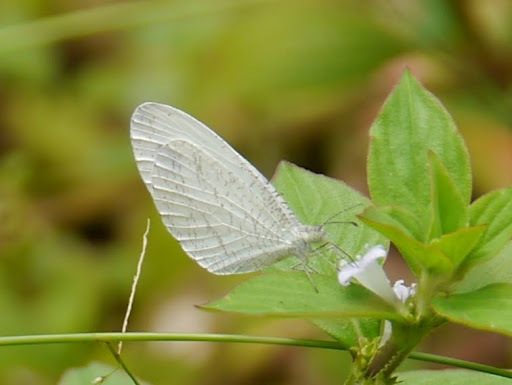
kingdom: Animalia
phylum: Arthropoda
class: Insecta
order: Lepidoptera
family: Pieridae
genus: Leptosia
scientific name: Leptosia alcesta
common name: African wood white
